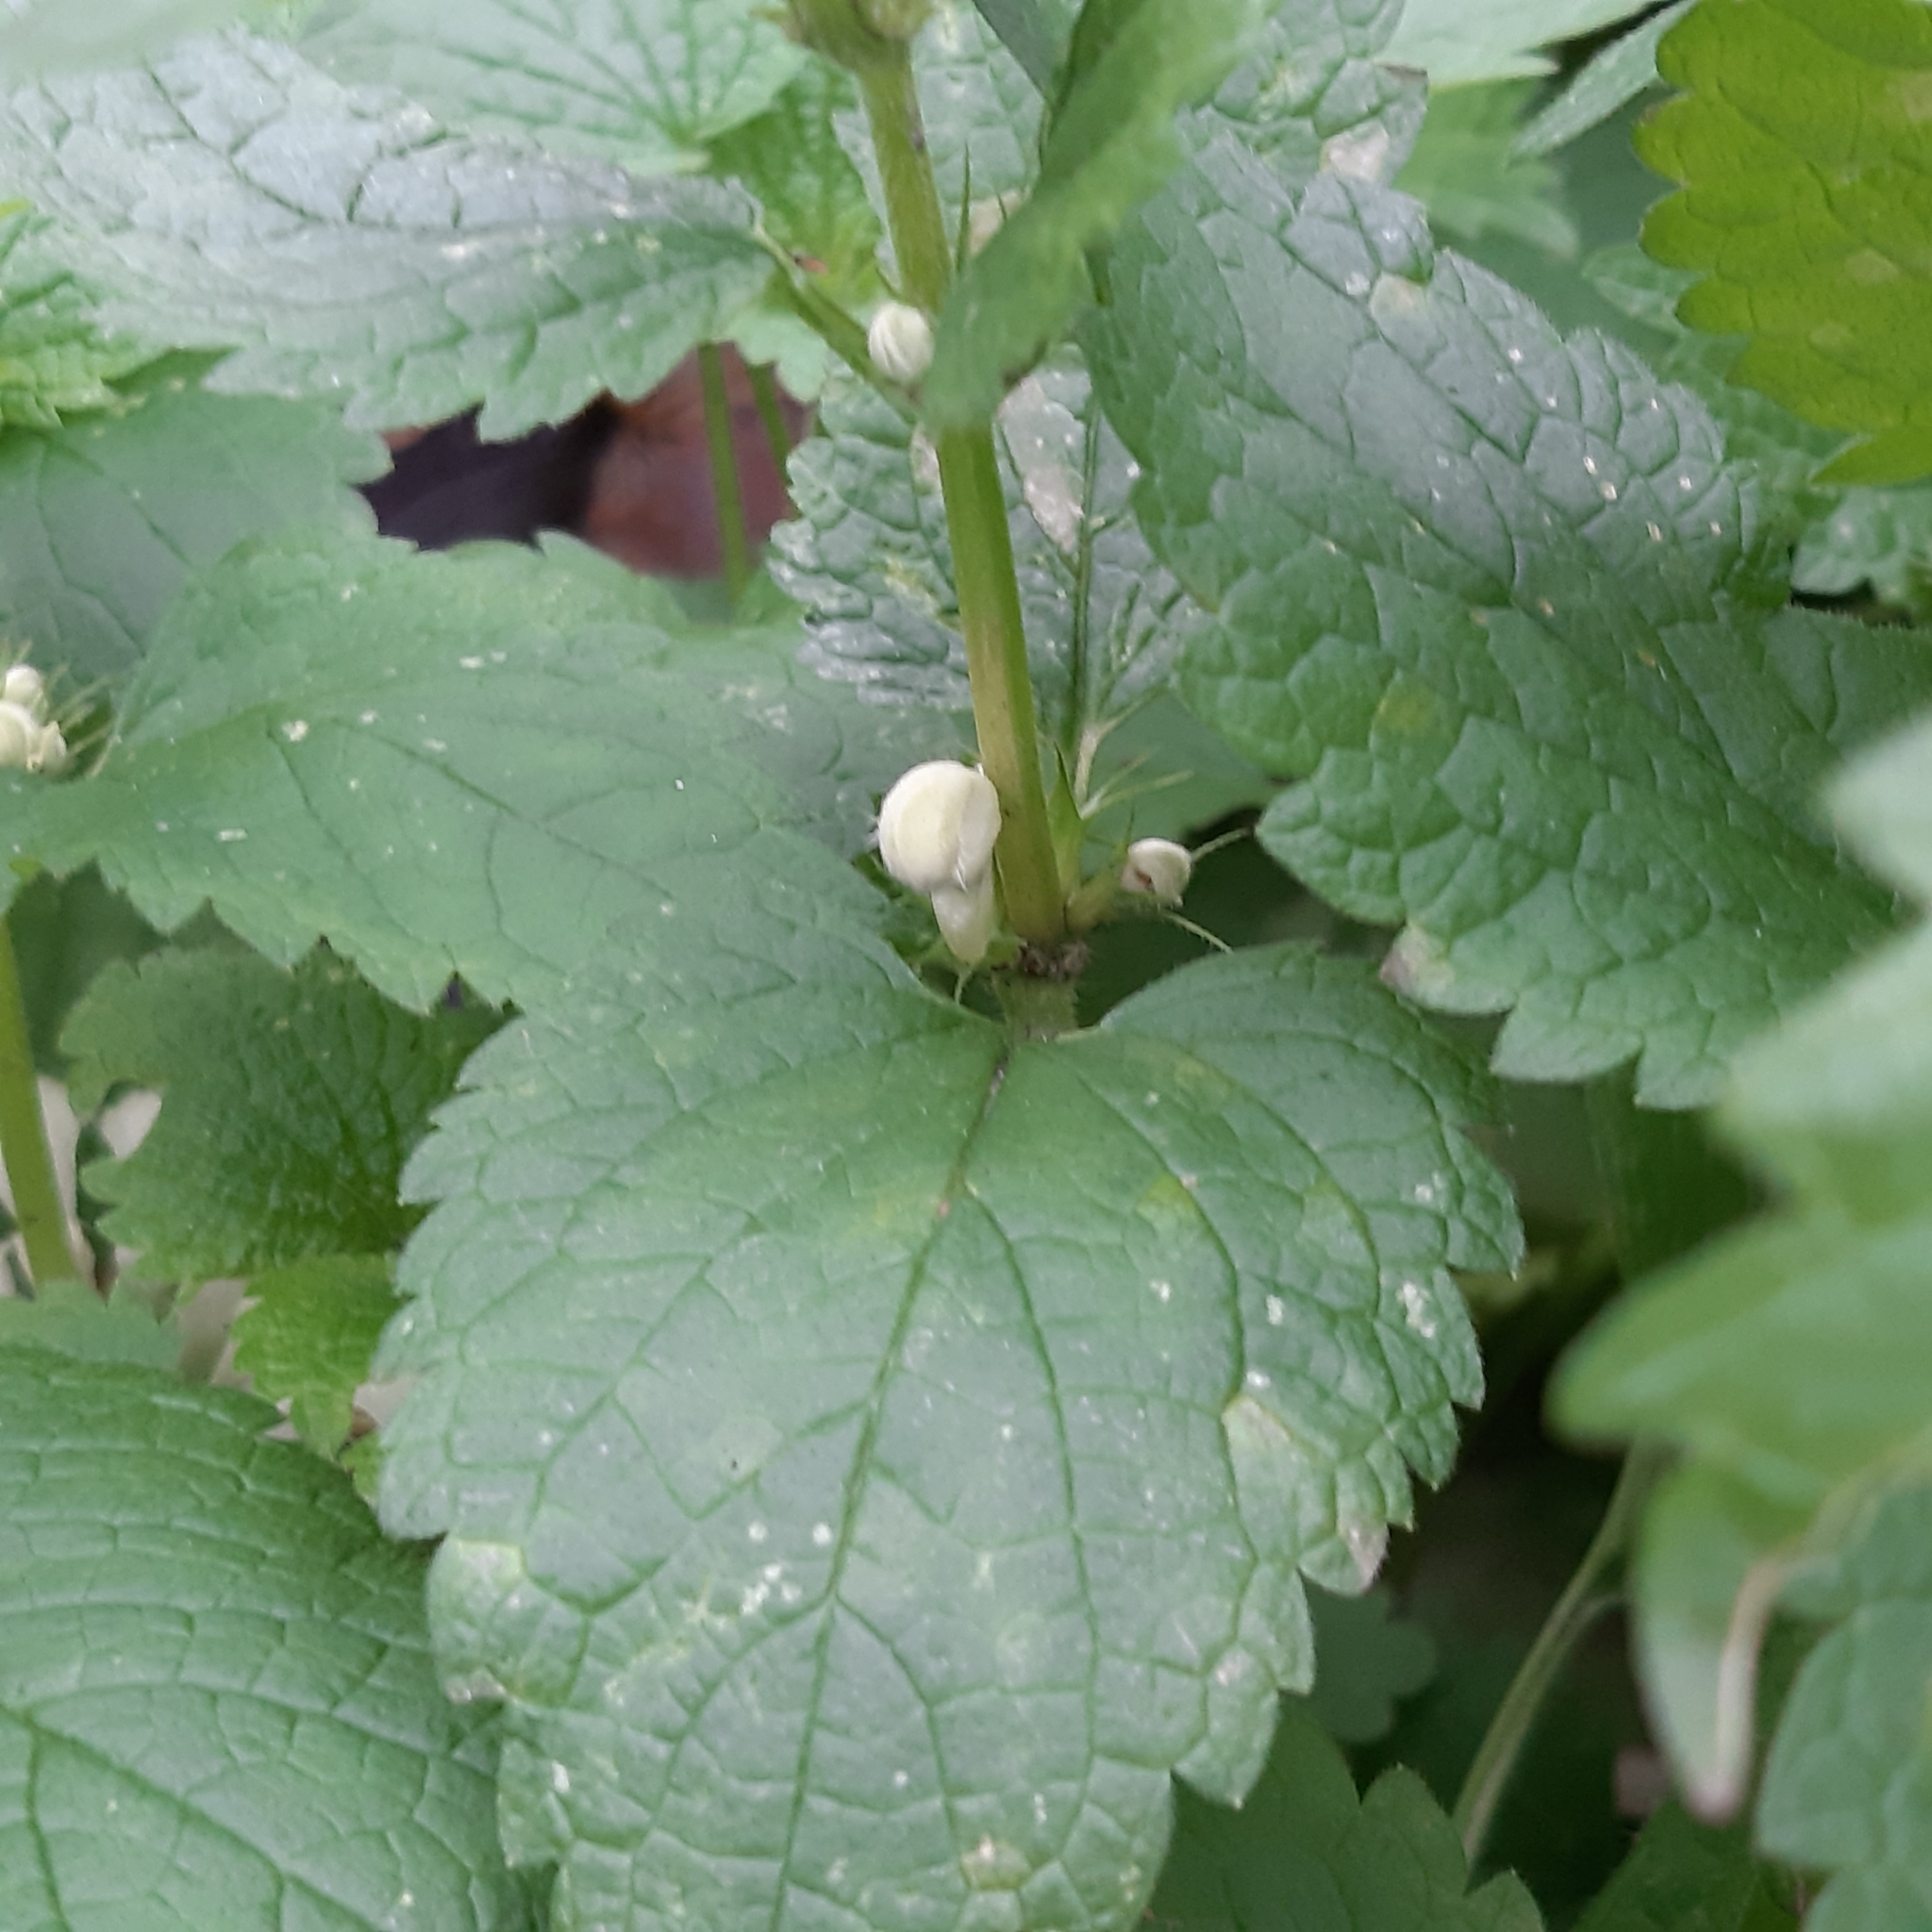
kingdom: Plantae
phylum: Tracheophyta
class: Magnoliopsida
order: Lamiales
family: Lamiaceae
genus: Lamium
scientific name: Lamium album
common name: White dead-nettle
